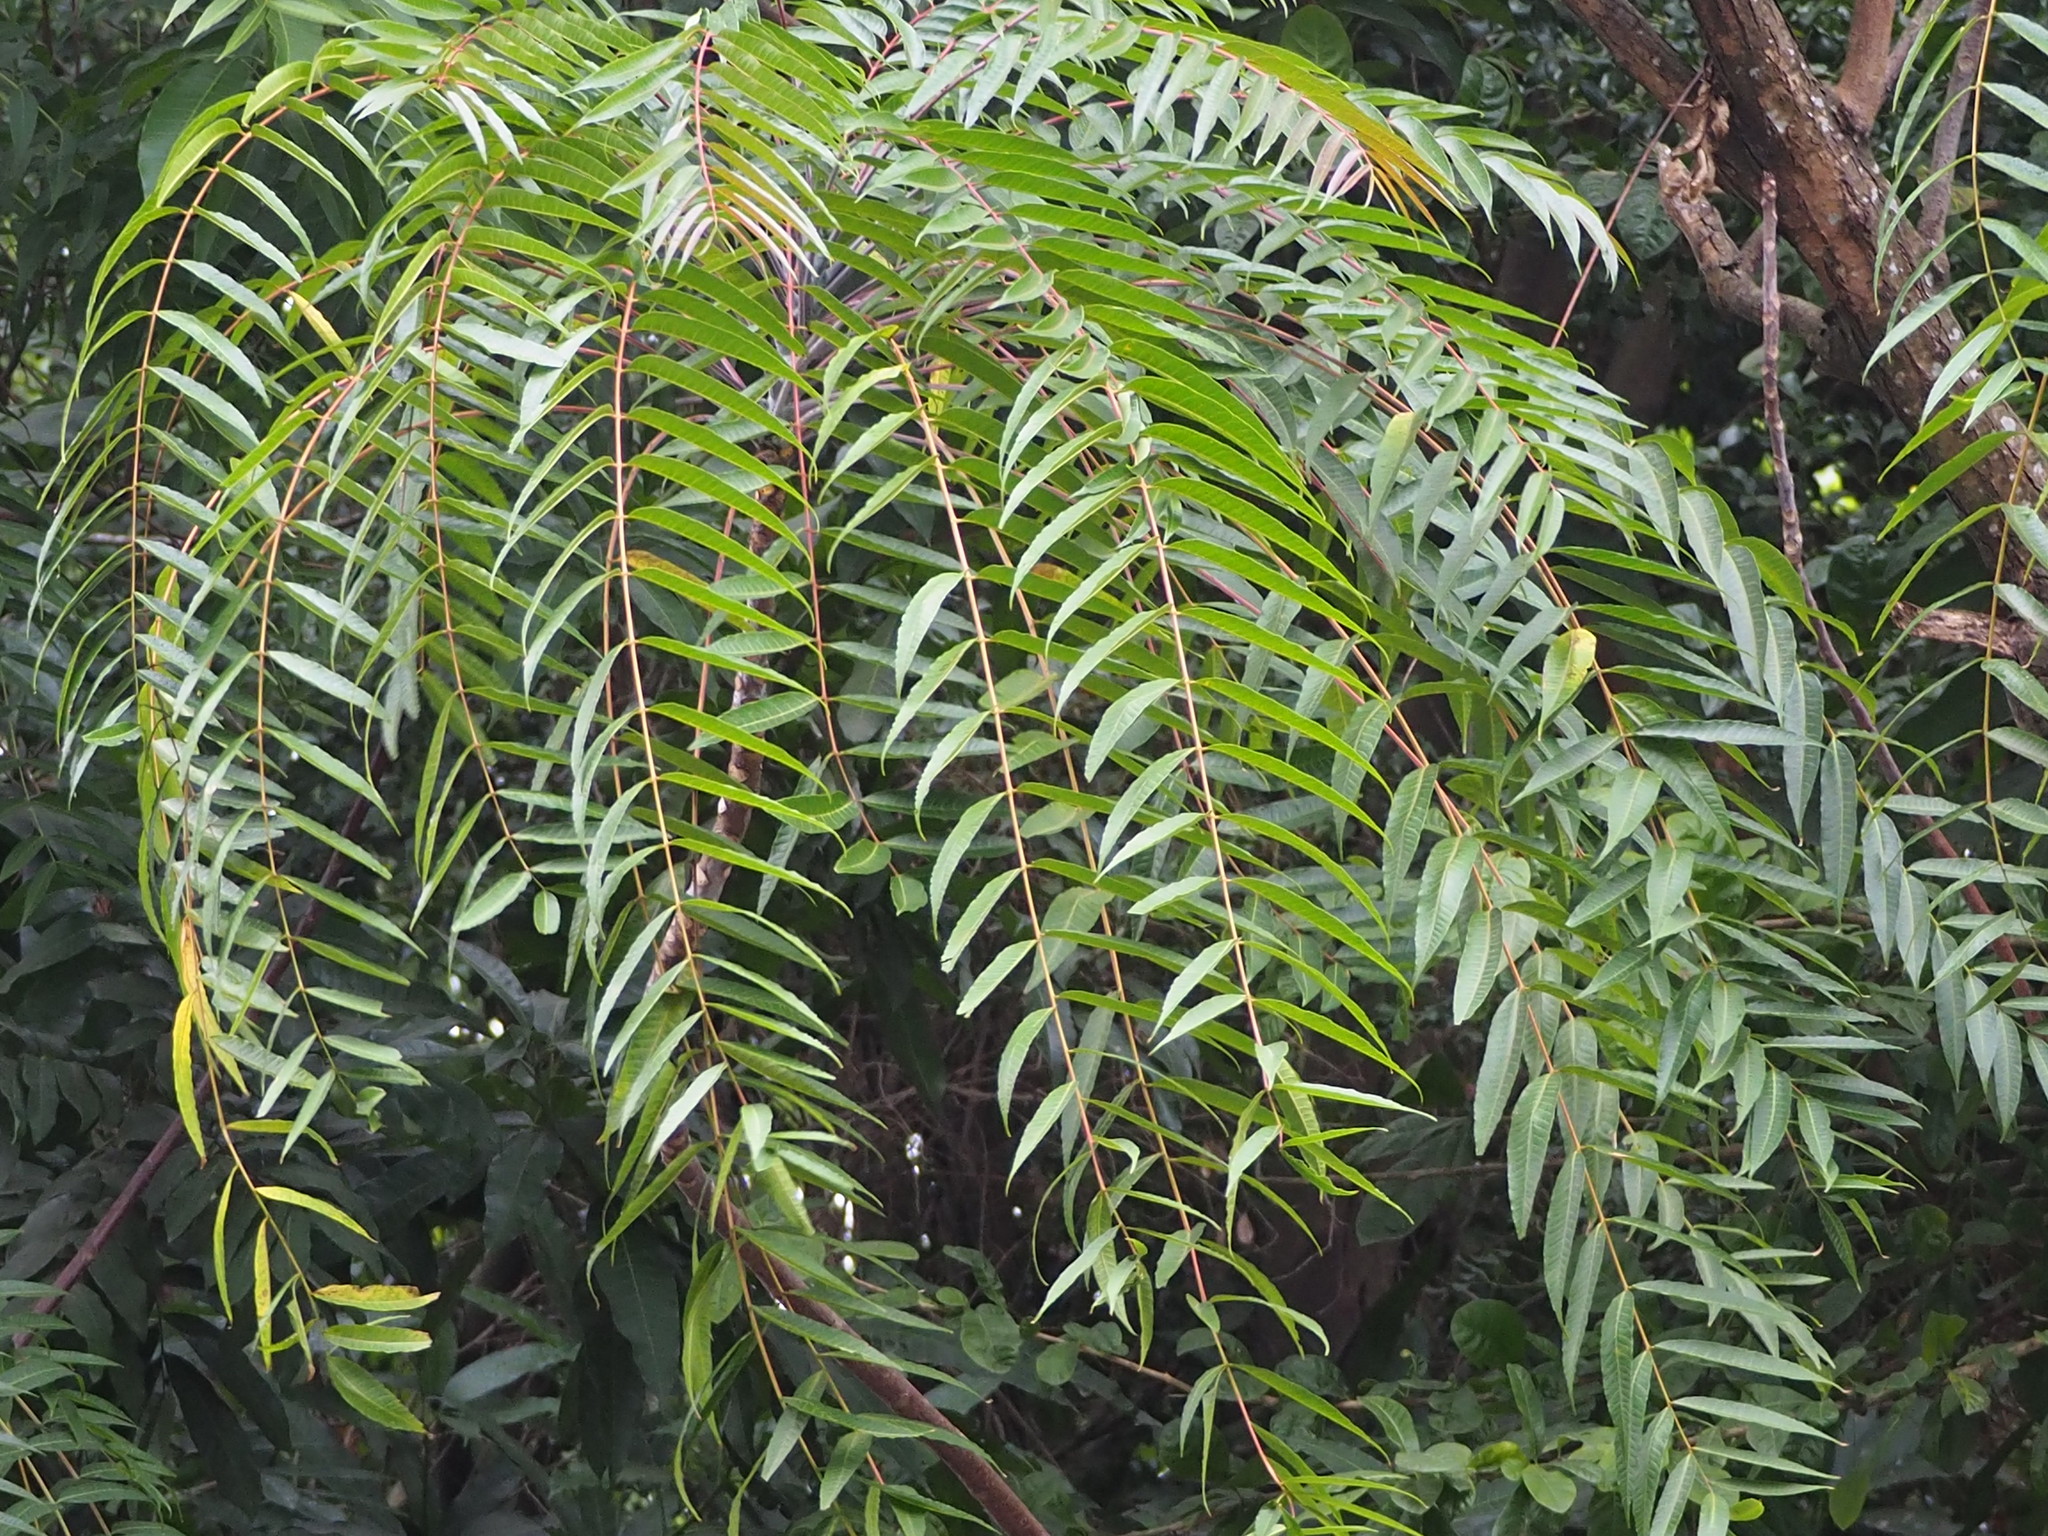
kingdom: Plantae
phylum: Tracheophyta
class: Magnoliopsida
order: Sapindales
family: Meliaceae
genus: Toona
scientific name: Toona sinensis
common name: Red toon
